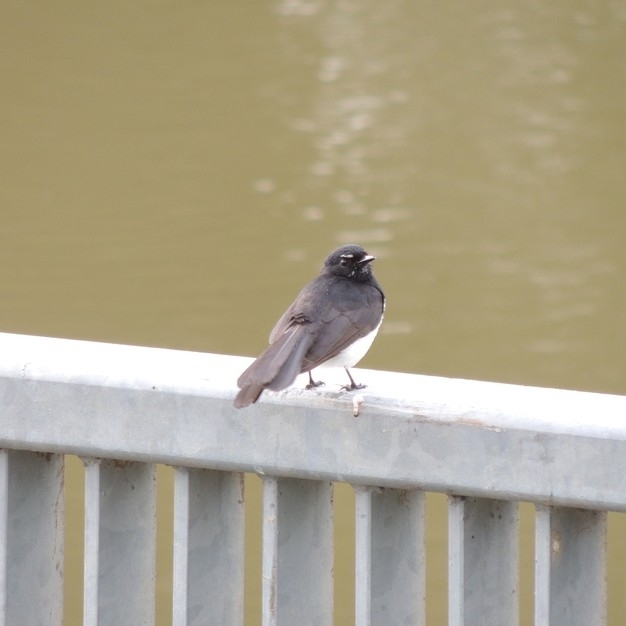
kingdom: Animalia
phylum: Chordata
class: Aves
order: Passeriformes
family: Rhipiduridae
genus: Rhipidura
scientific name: Rhipidura leucophrys
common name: Willie wagtail
